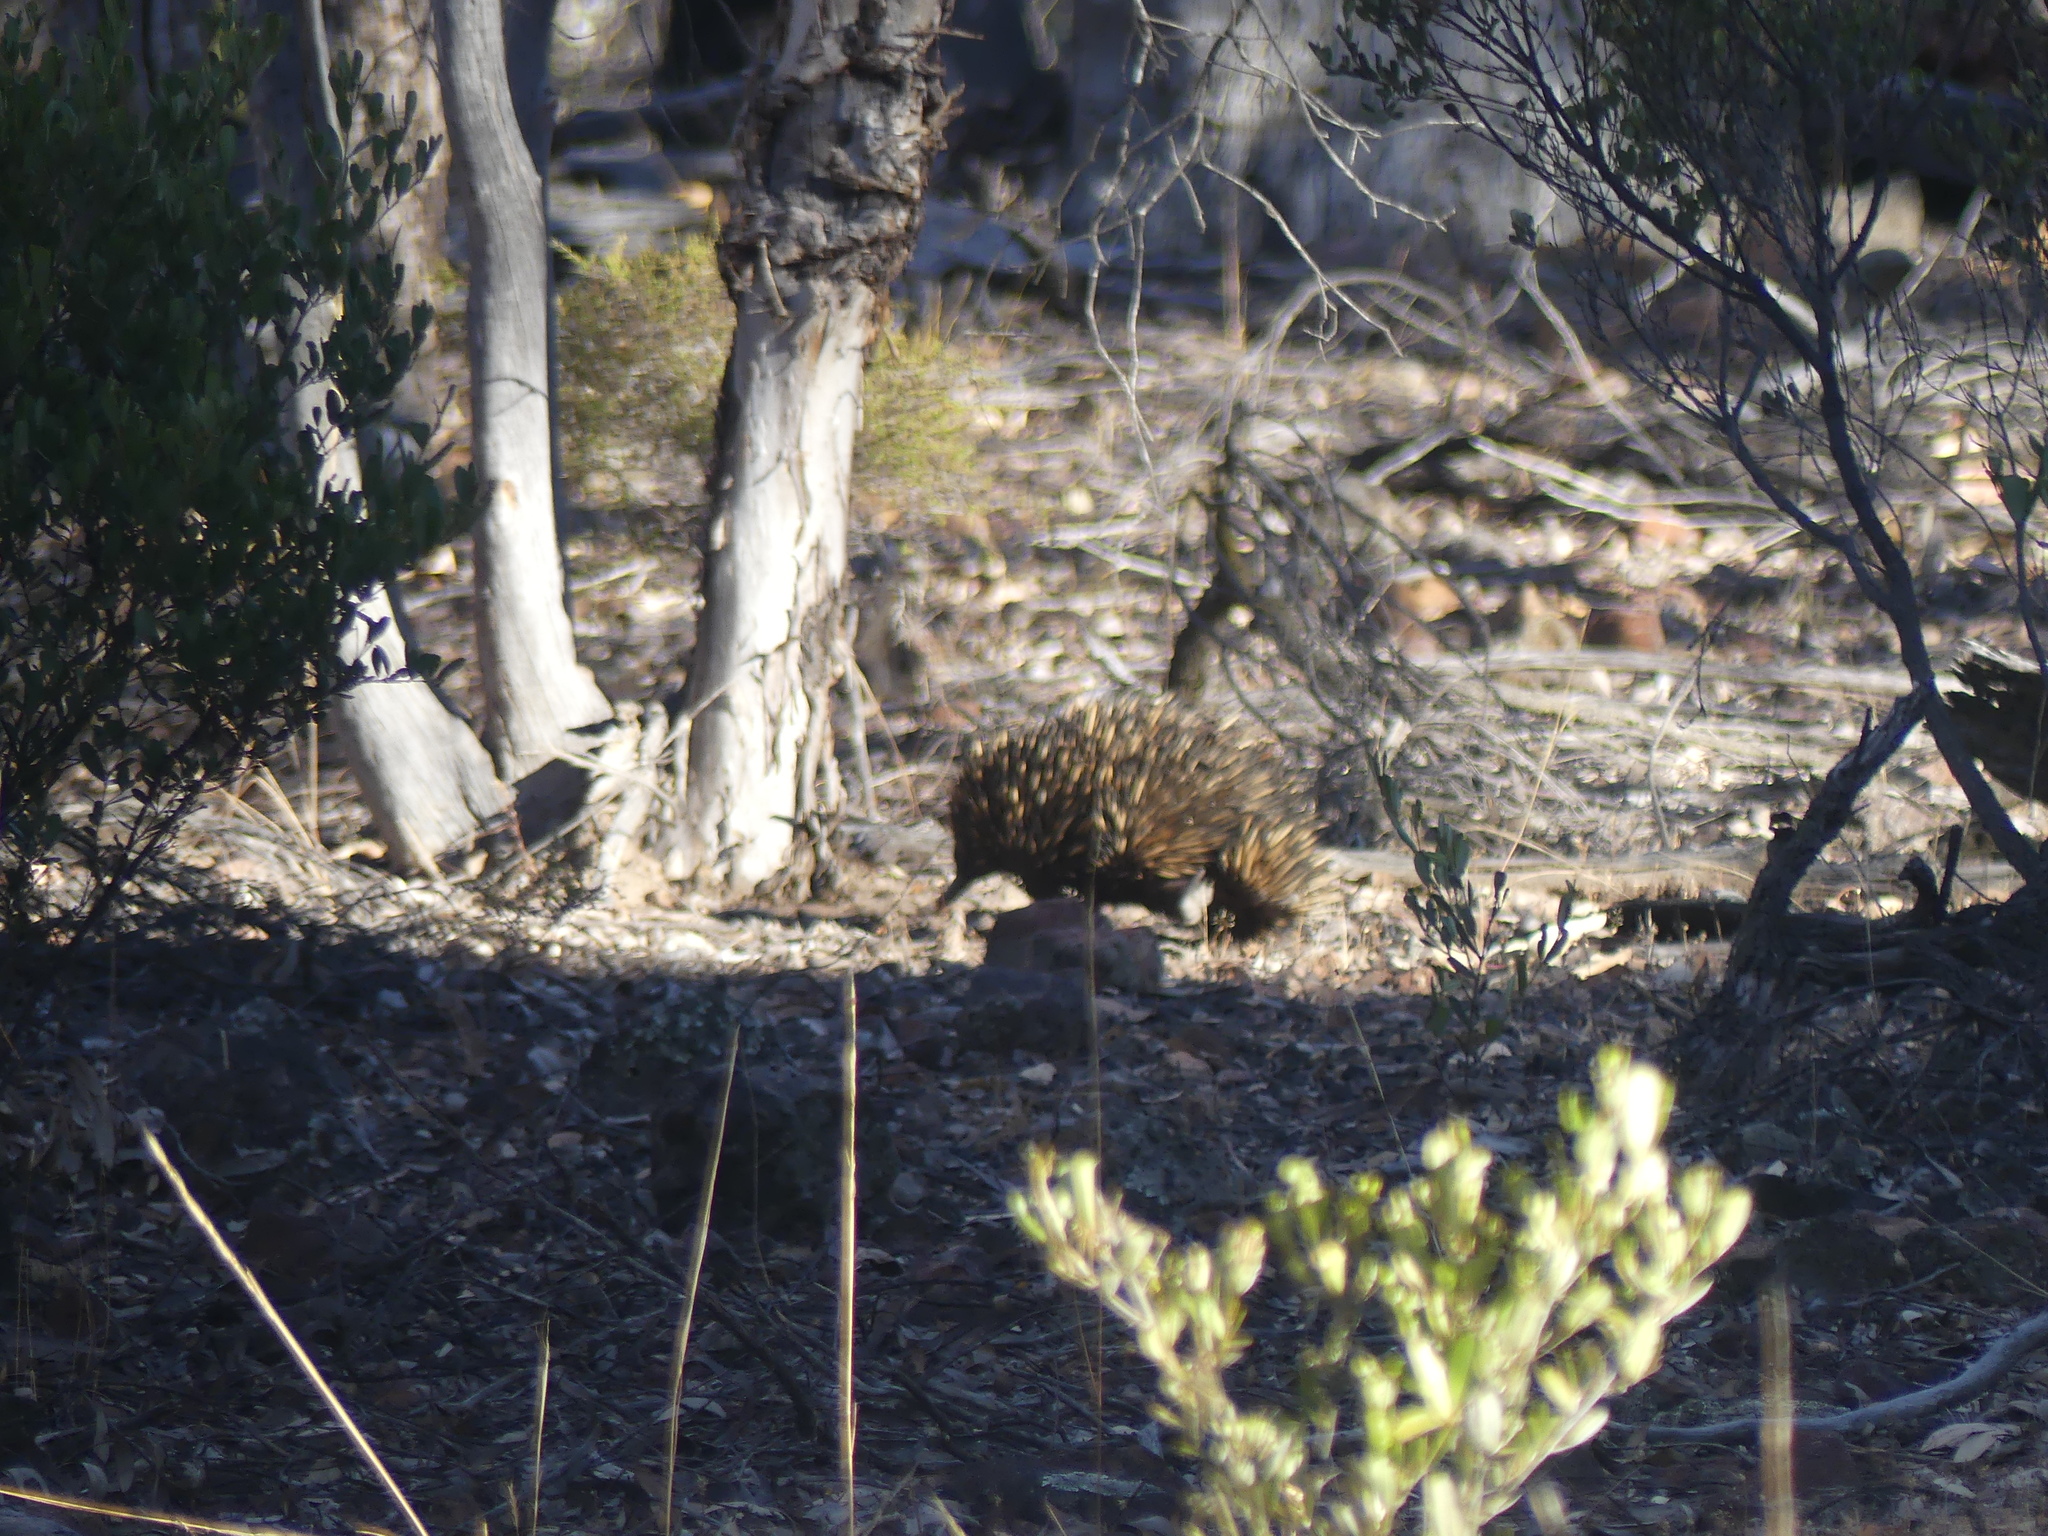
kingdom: Animalia
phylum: Chordata
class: Mammalia
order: Monotremata
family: Tachyglossidae
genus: Tachyglossus
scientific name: Tachyglossus aculeatus
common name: Short-beaked echidna
